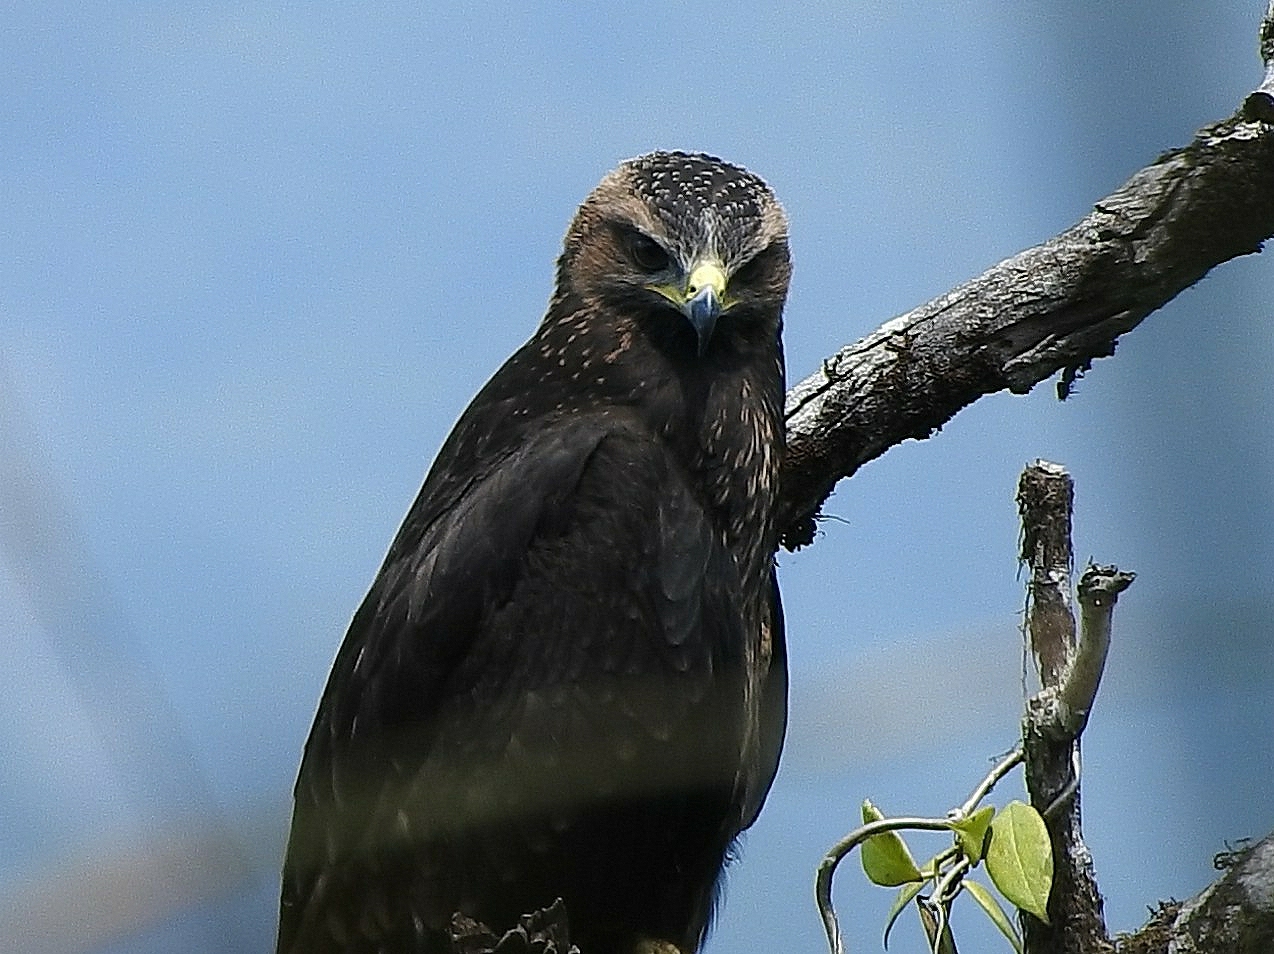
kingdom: Animalia
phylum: Chordata
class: Aves
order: Accipitriformes
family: Accipitridae
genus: Ictinaetus
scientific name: Ictinaetus malayensis
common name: Black eagle
